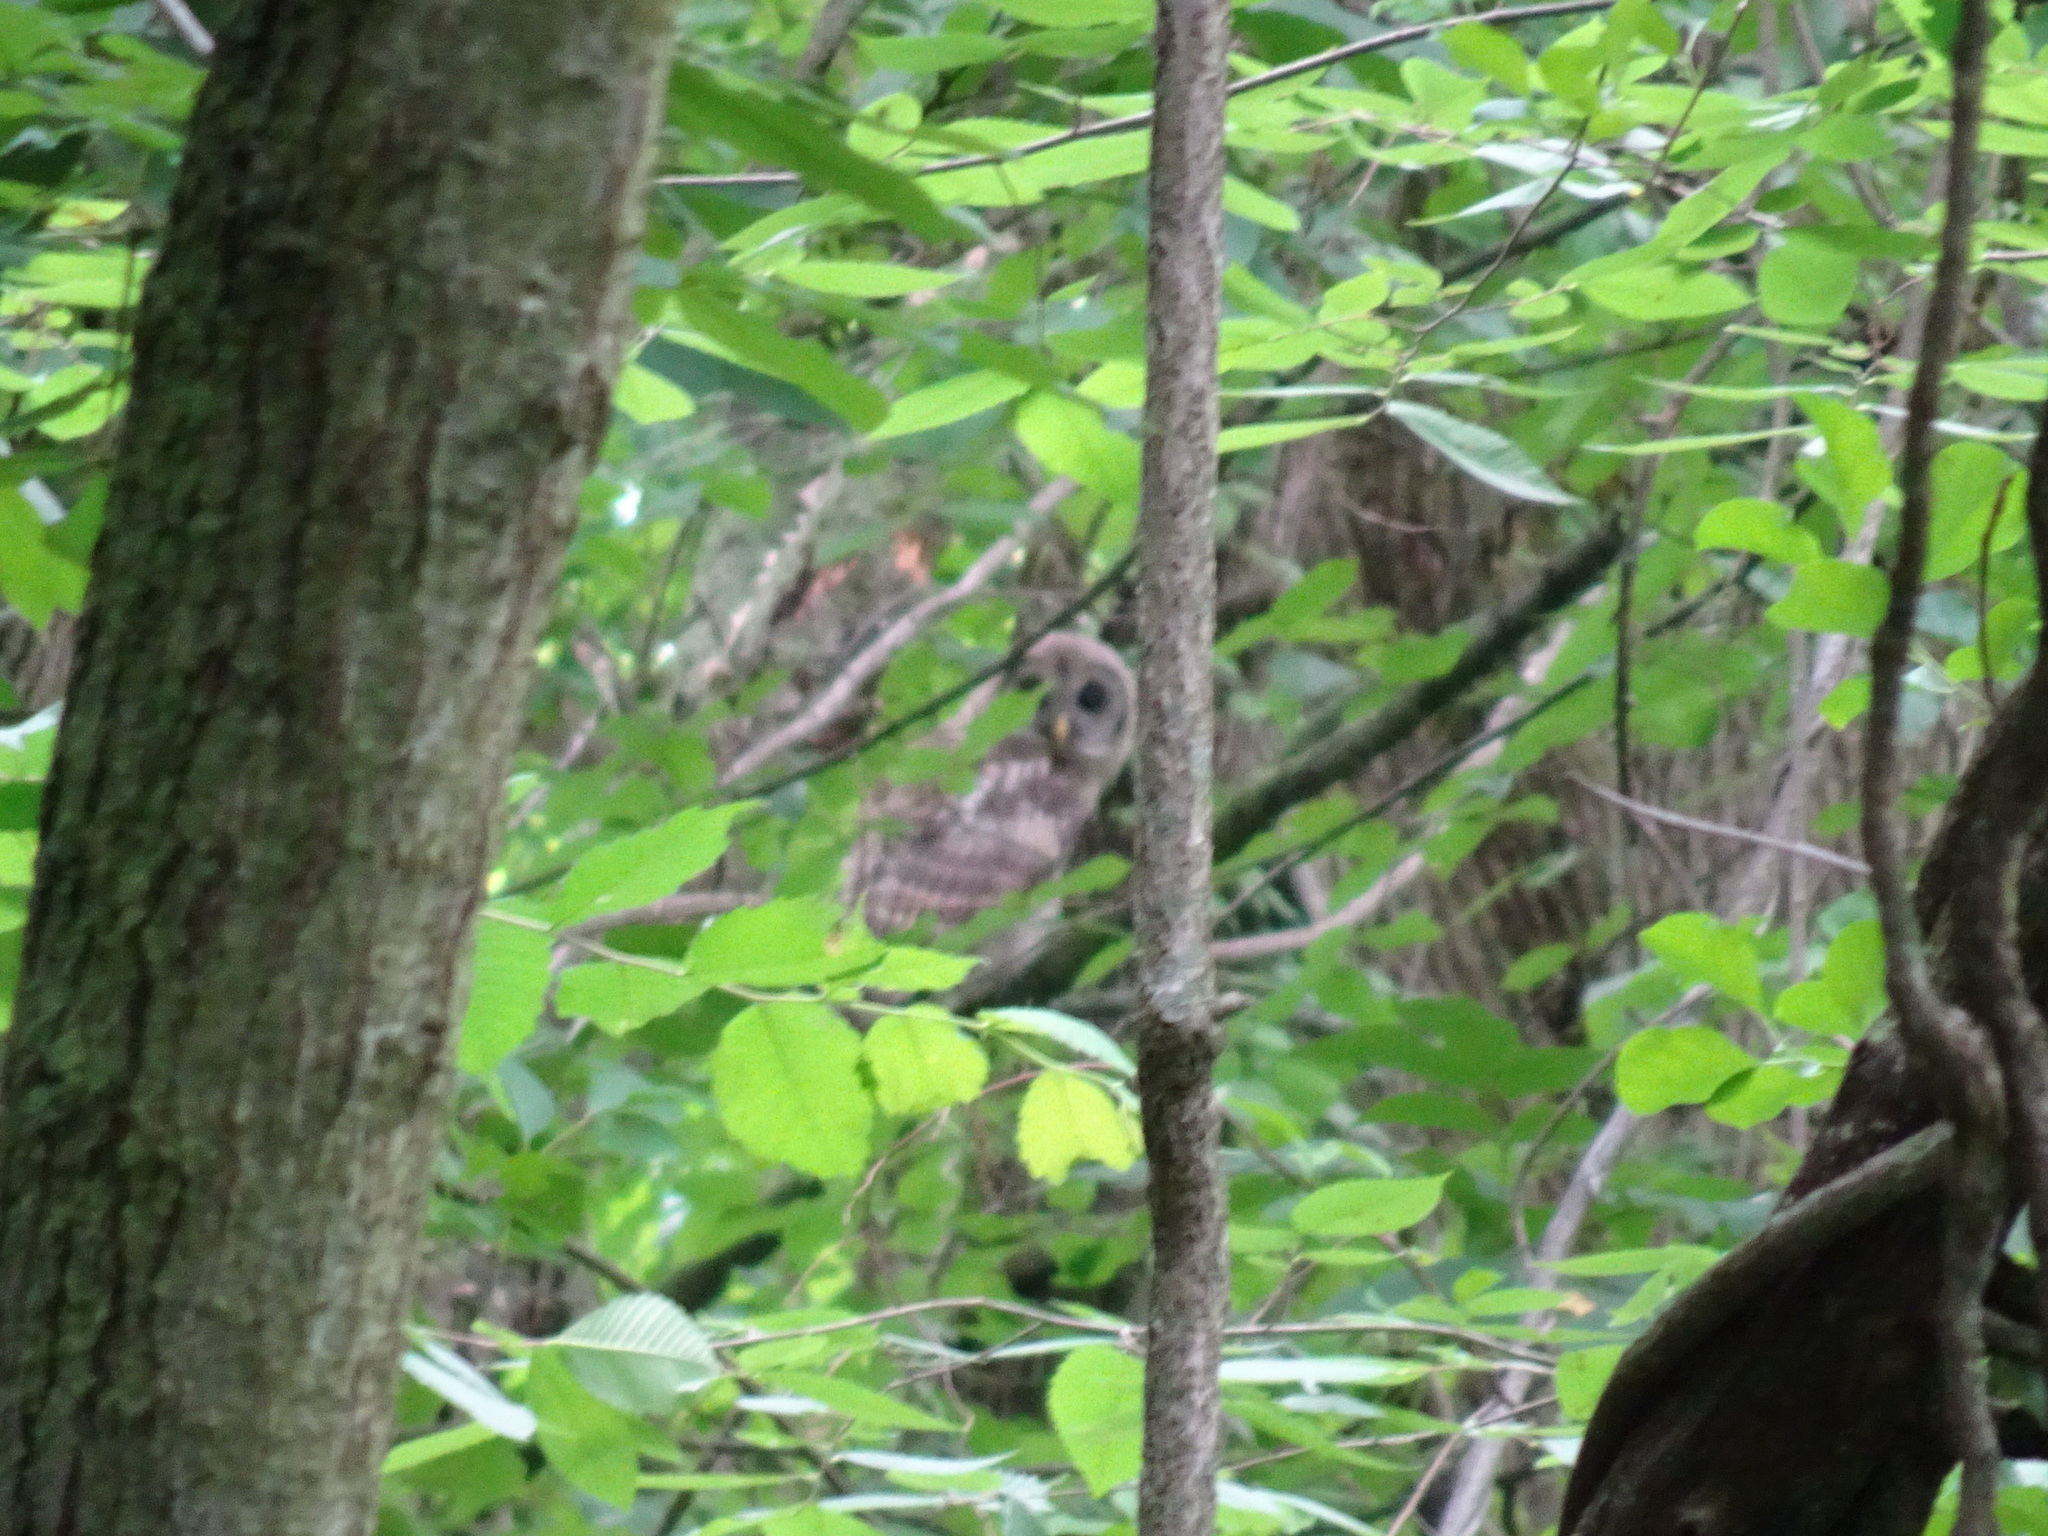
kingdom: Animalia
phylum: Chordata
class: Aves
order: Strigiformes
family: Strigidae
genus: Strix
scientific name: Strix varia
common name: Barred owl
